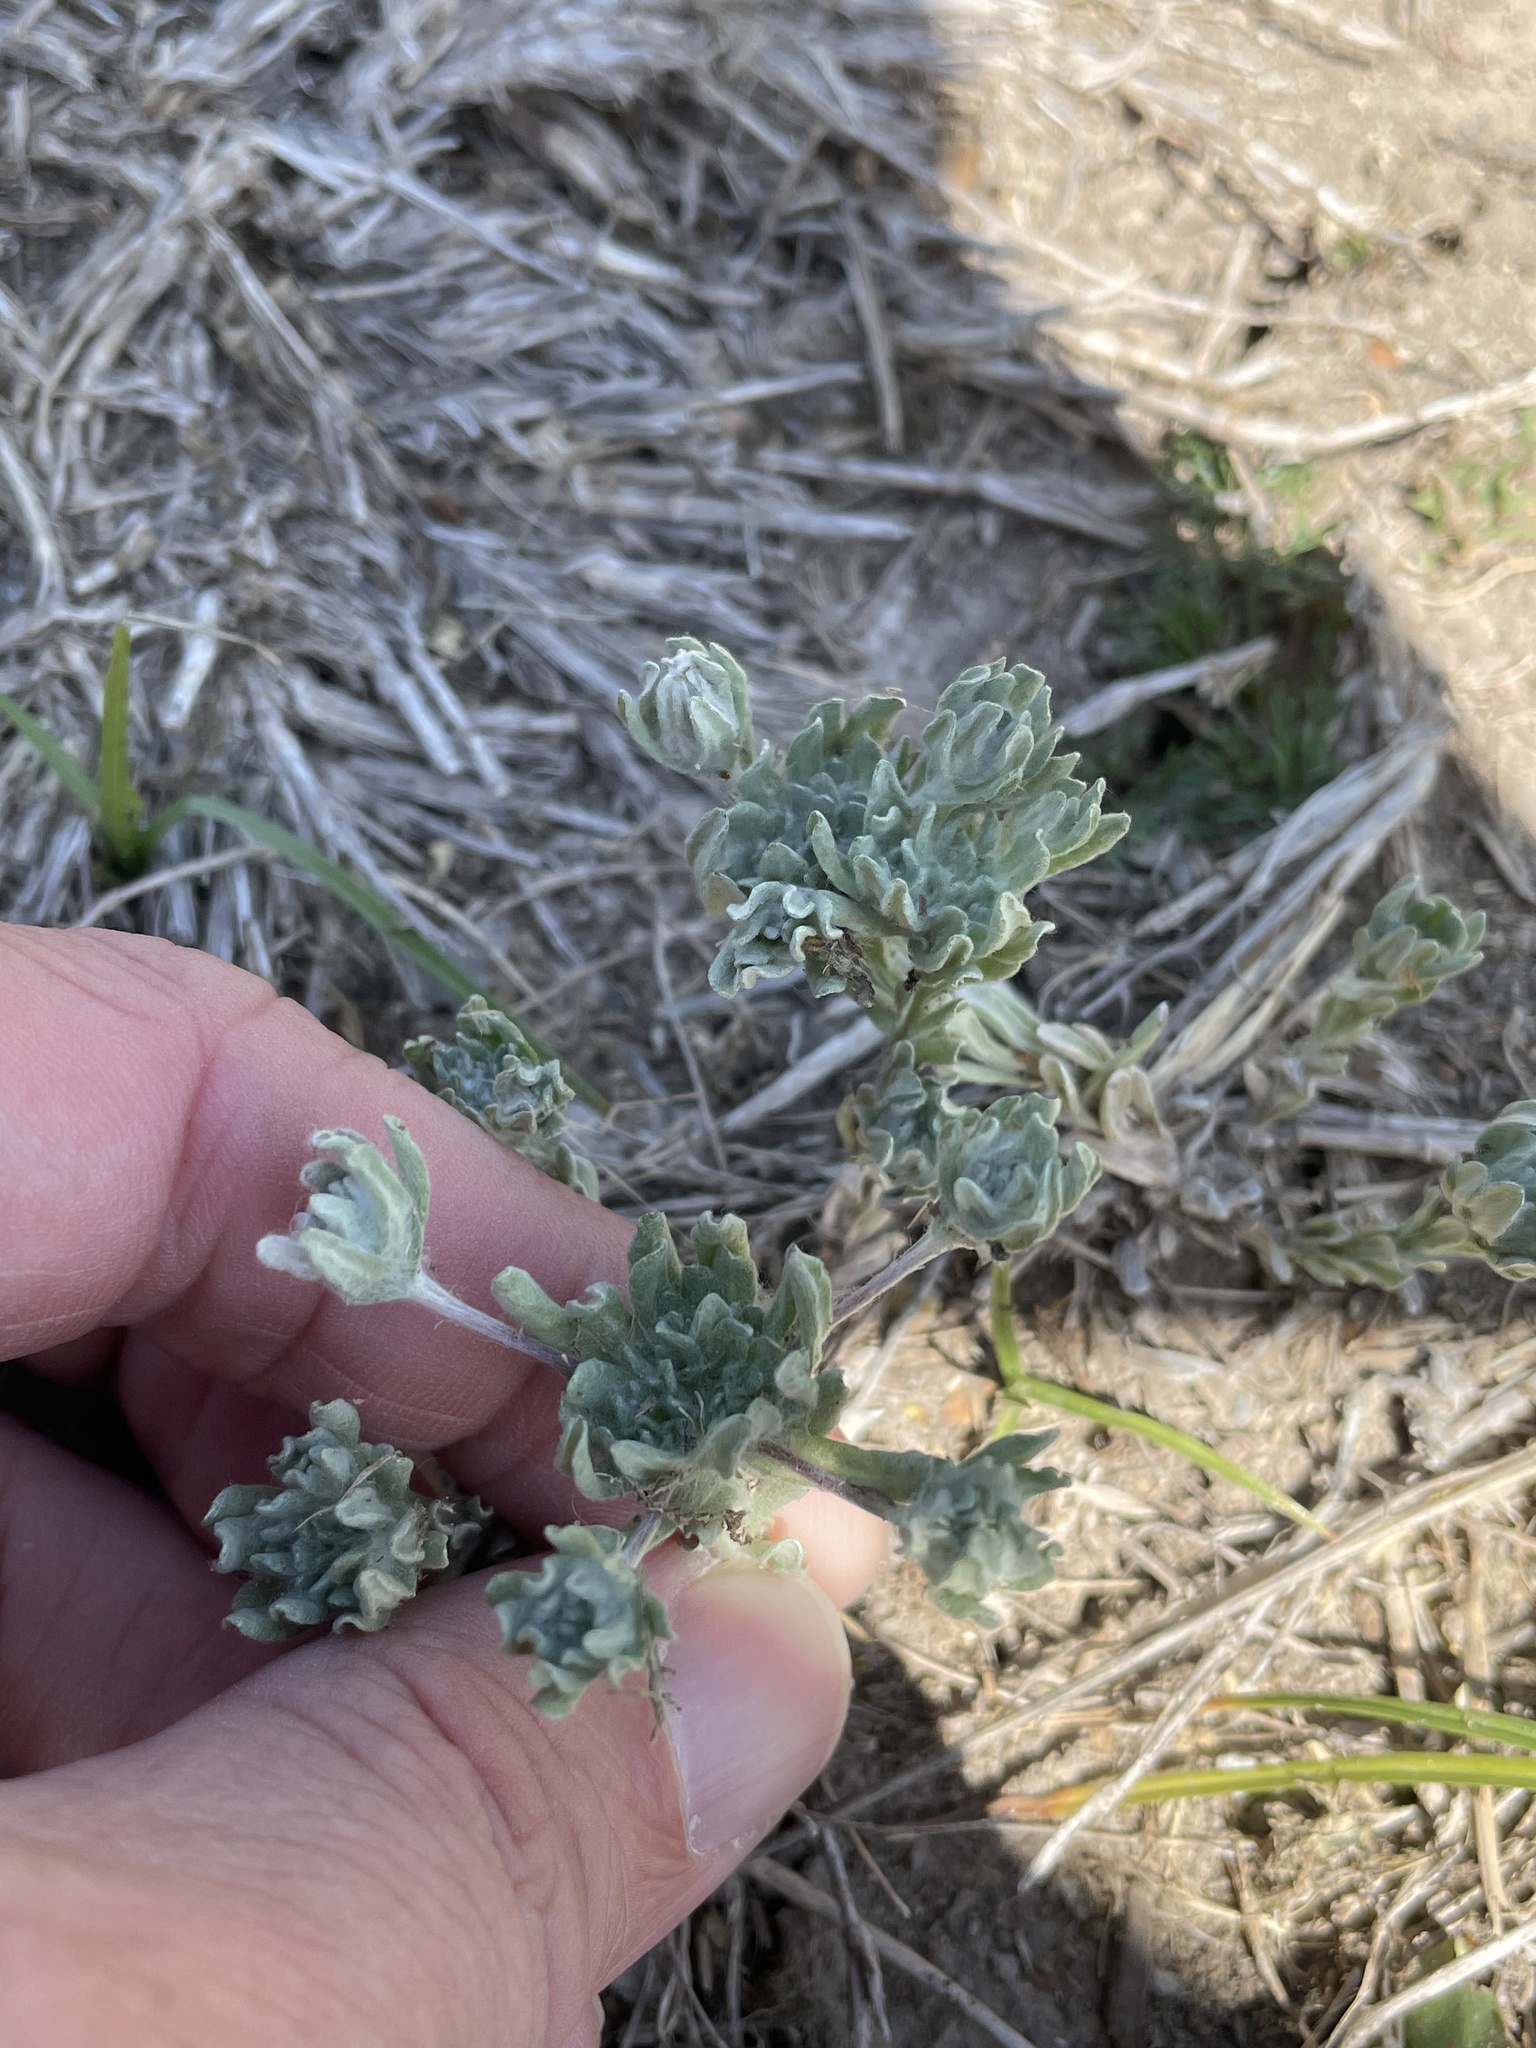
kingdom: Plantae
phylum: Tracheophyta
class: Magnoliopsida
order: Asterales
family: Asteraceae
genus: Diaperia
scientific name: Diaperia prolifera
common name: Big-head rabbit-tobacco
